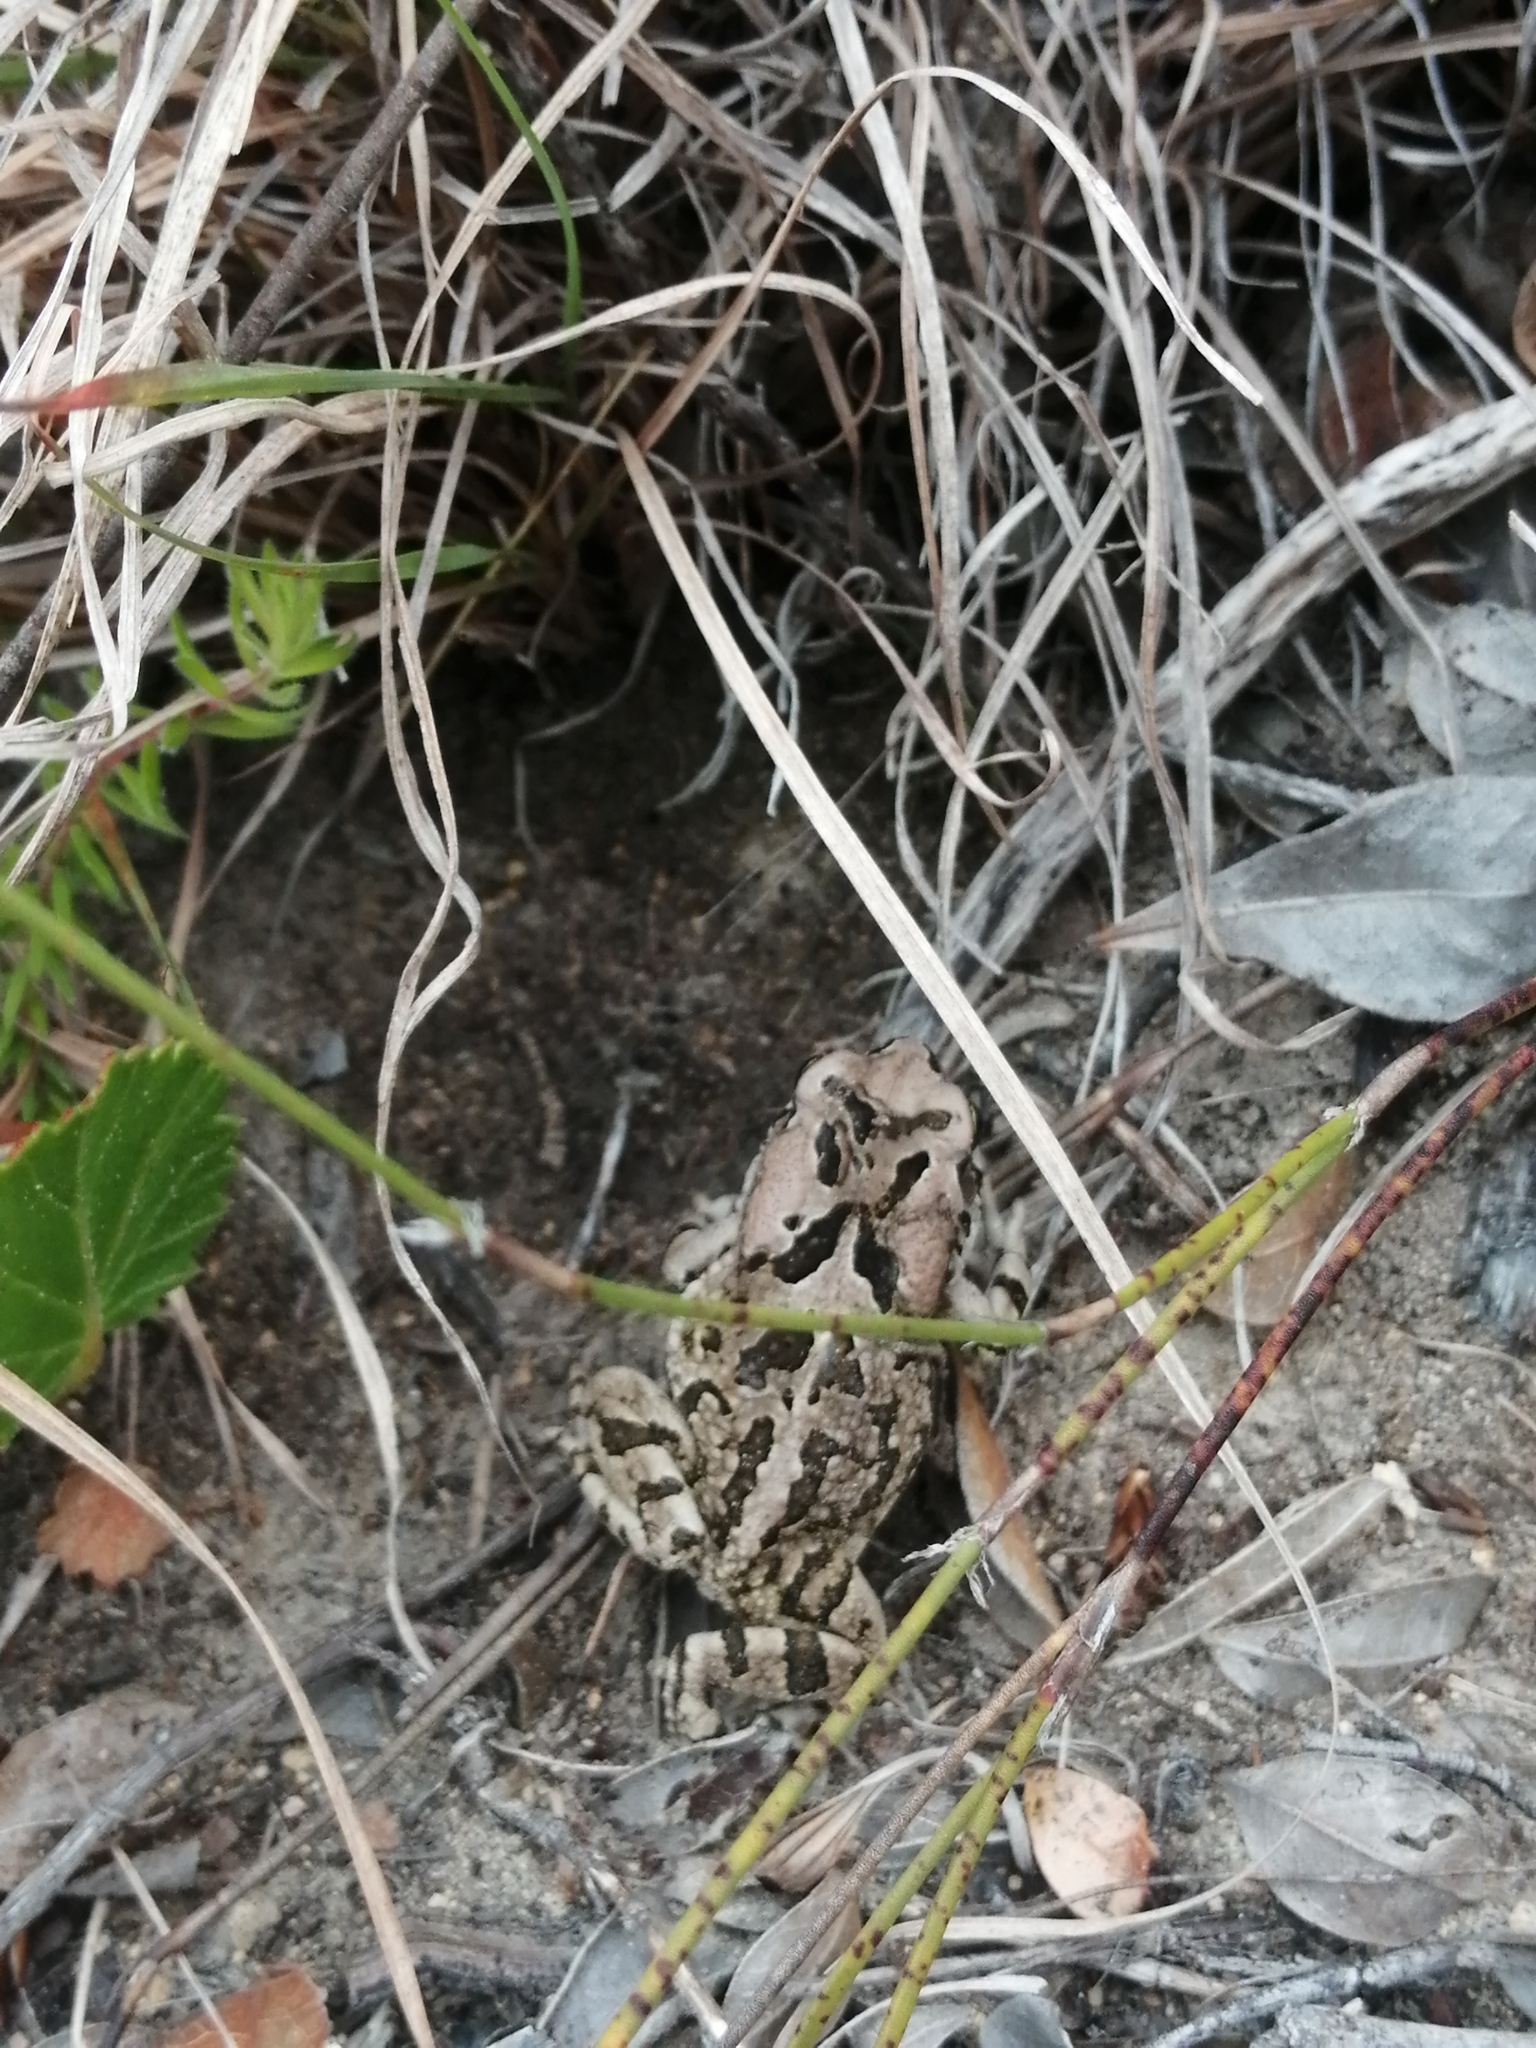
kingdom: Animalia
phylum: Chordata
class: Amphibia
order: Anura
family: Bufonidae
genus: Sclerophrys
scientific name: Sclerophrys capensis
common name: Ranger’s toad
